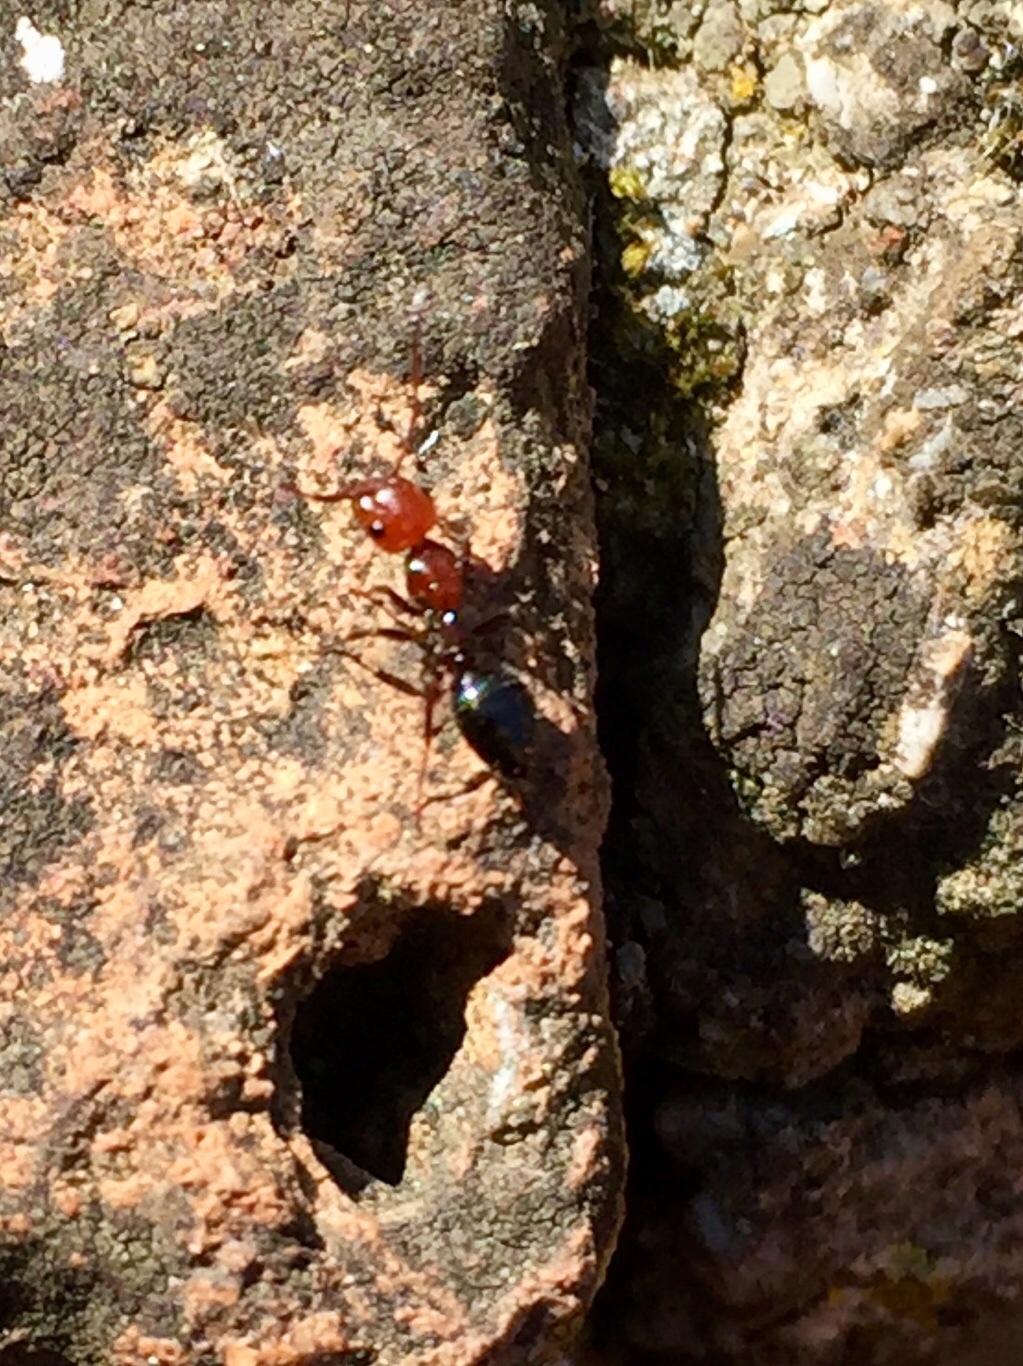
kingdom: Animalia
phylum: Arthropoda
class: Insecta
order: Hymenoptera
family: Formicidae
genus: Camponotus
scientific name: Camponotus lateralis
